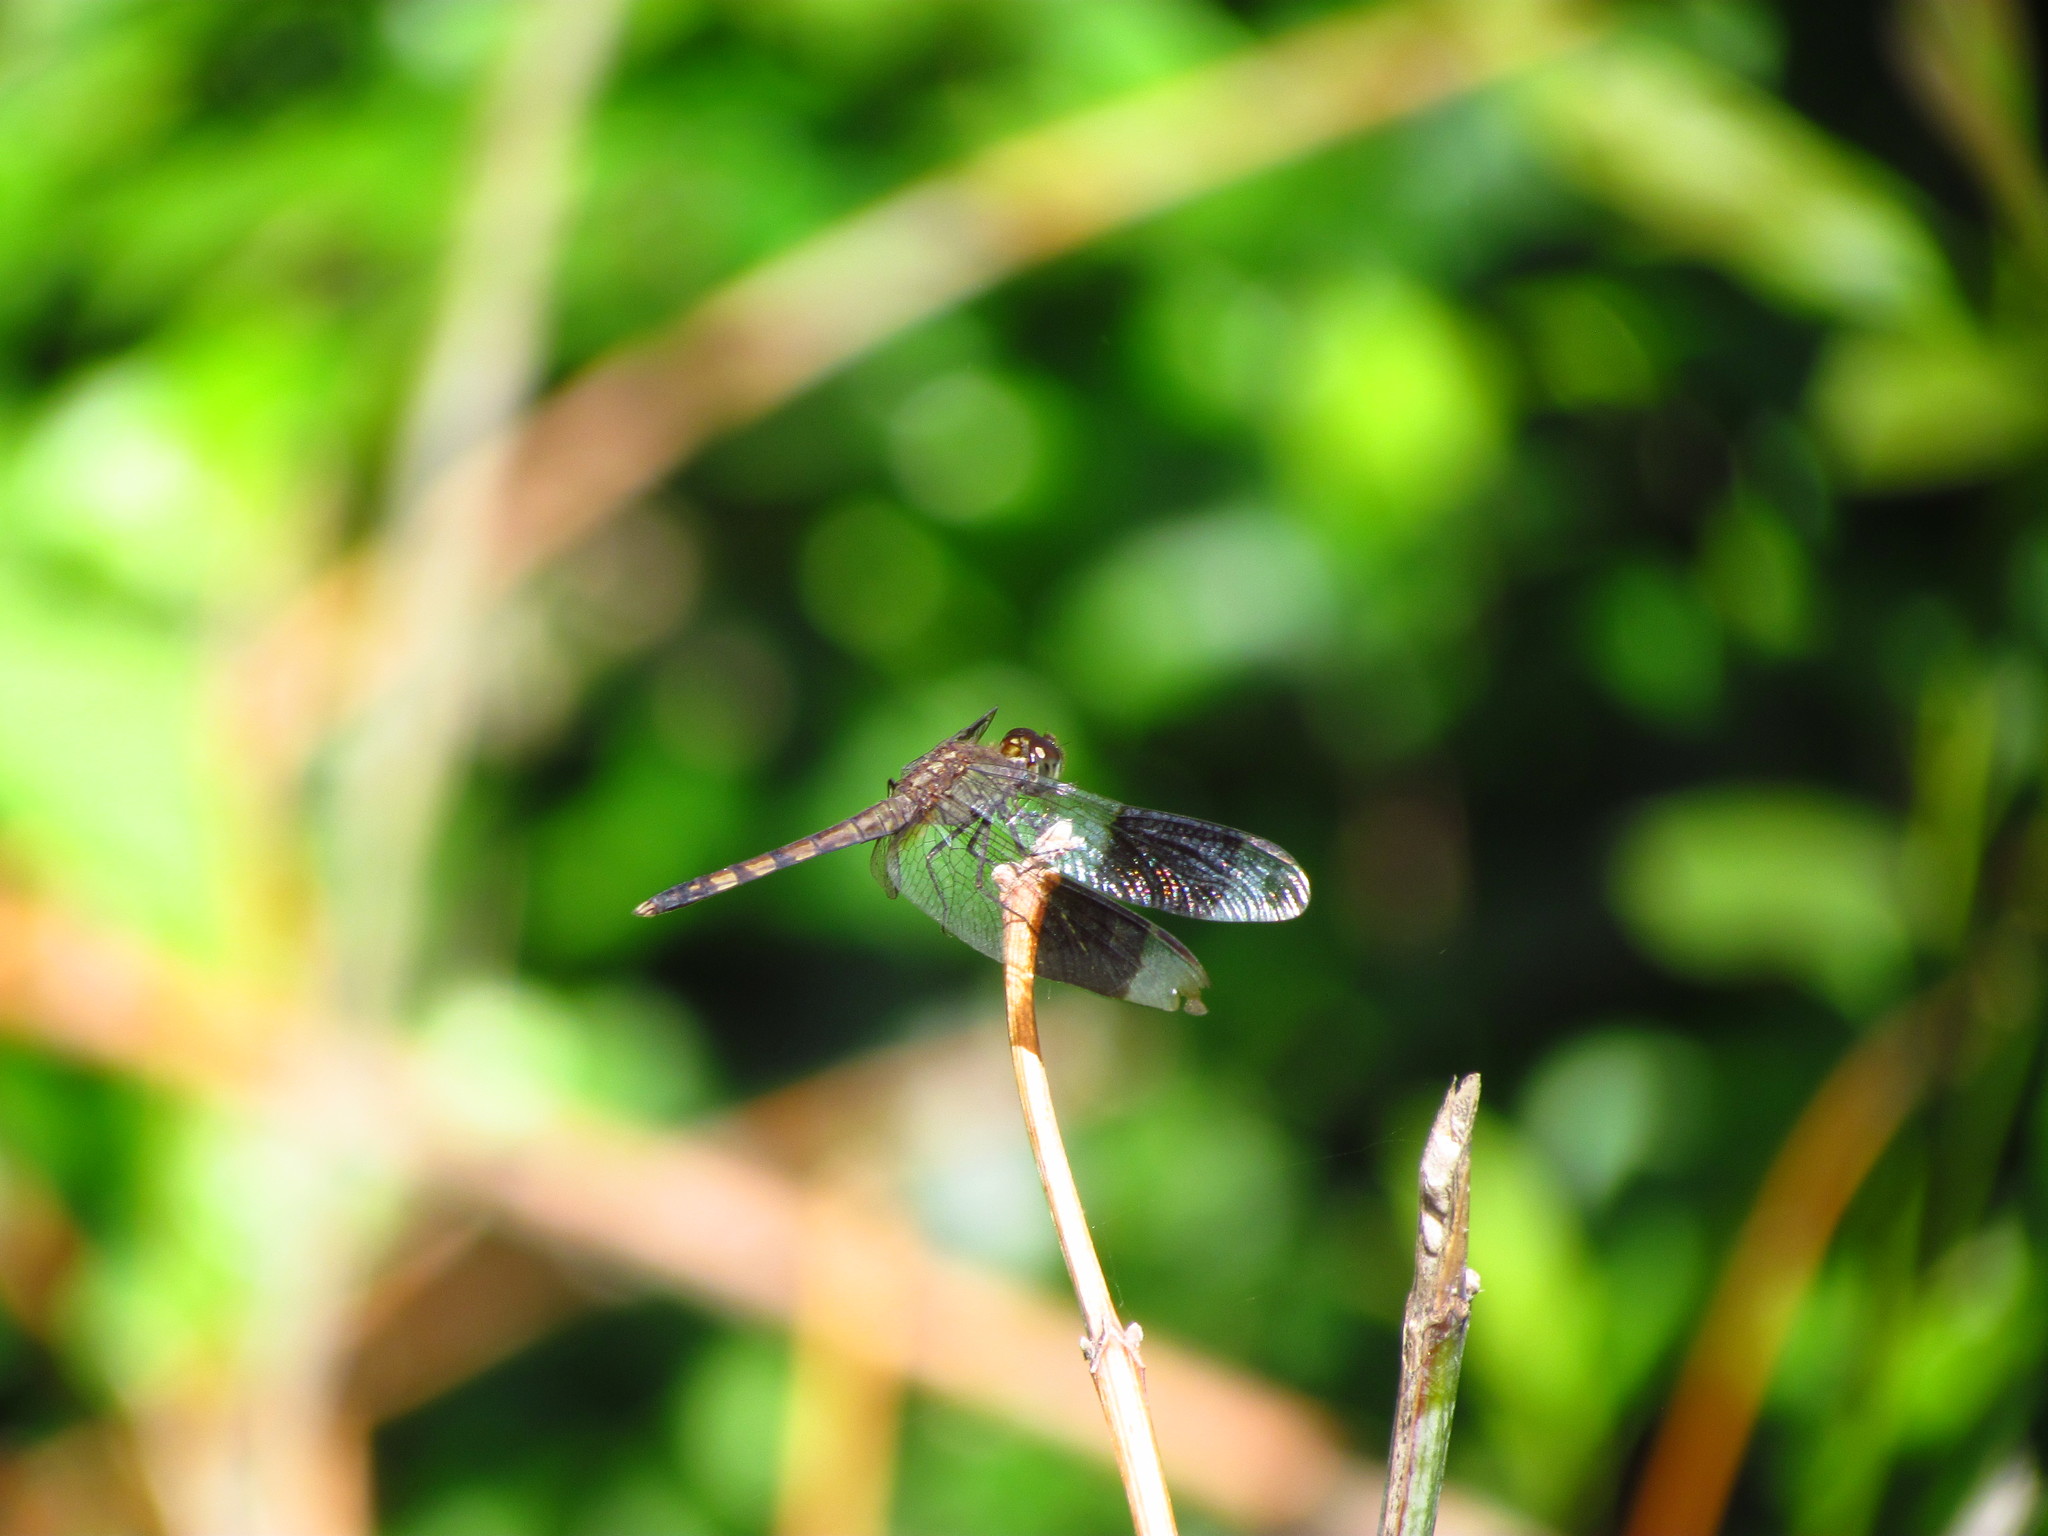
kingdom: Animalia
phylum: Arthropoda
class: Insecta
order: Odonata
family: Libellulidae
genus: Erythrodiplax
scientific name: Erythrodiplax umbrata
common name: Band-winged dragonlet
